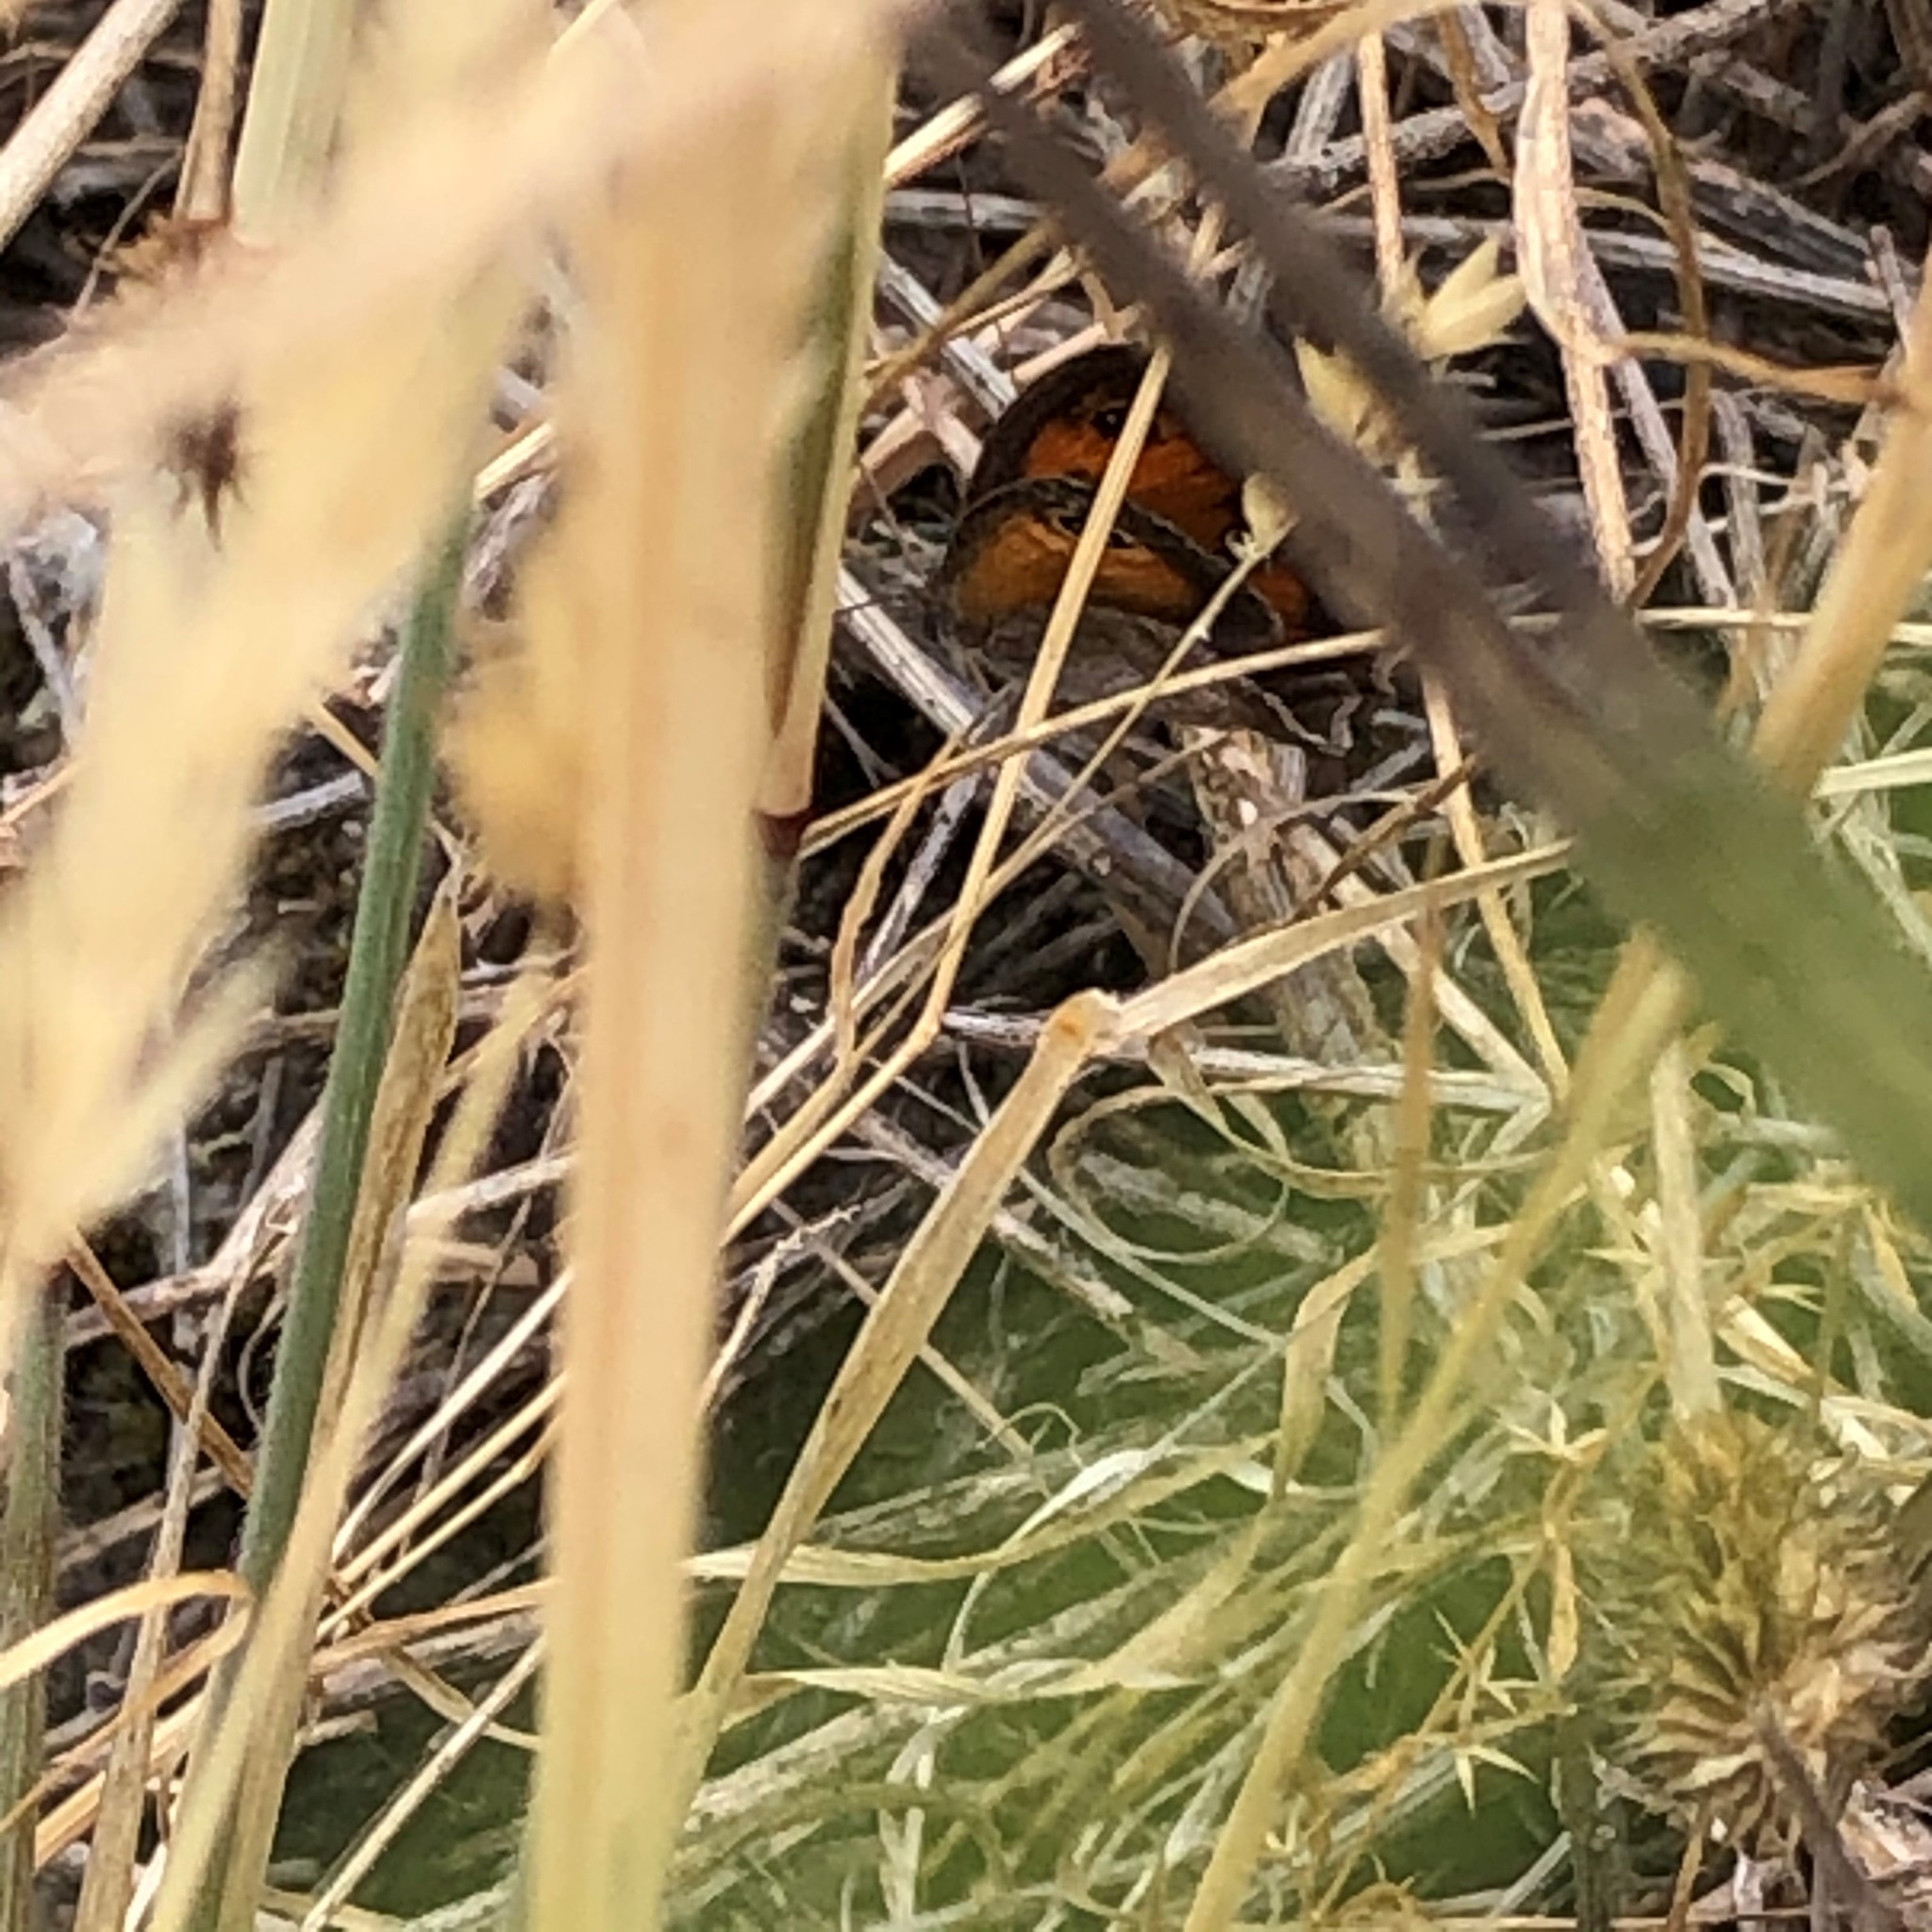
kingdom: Animalia
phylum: Arthropoda
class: Insecta
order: Lepidoptera
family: Nymphalidae
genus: Pyronia
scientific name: Pyronia cecilia
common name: Southern gatekeeper
